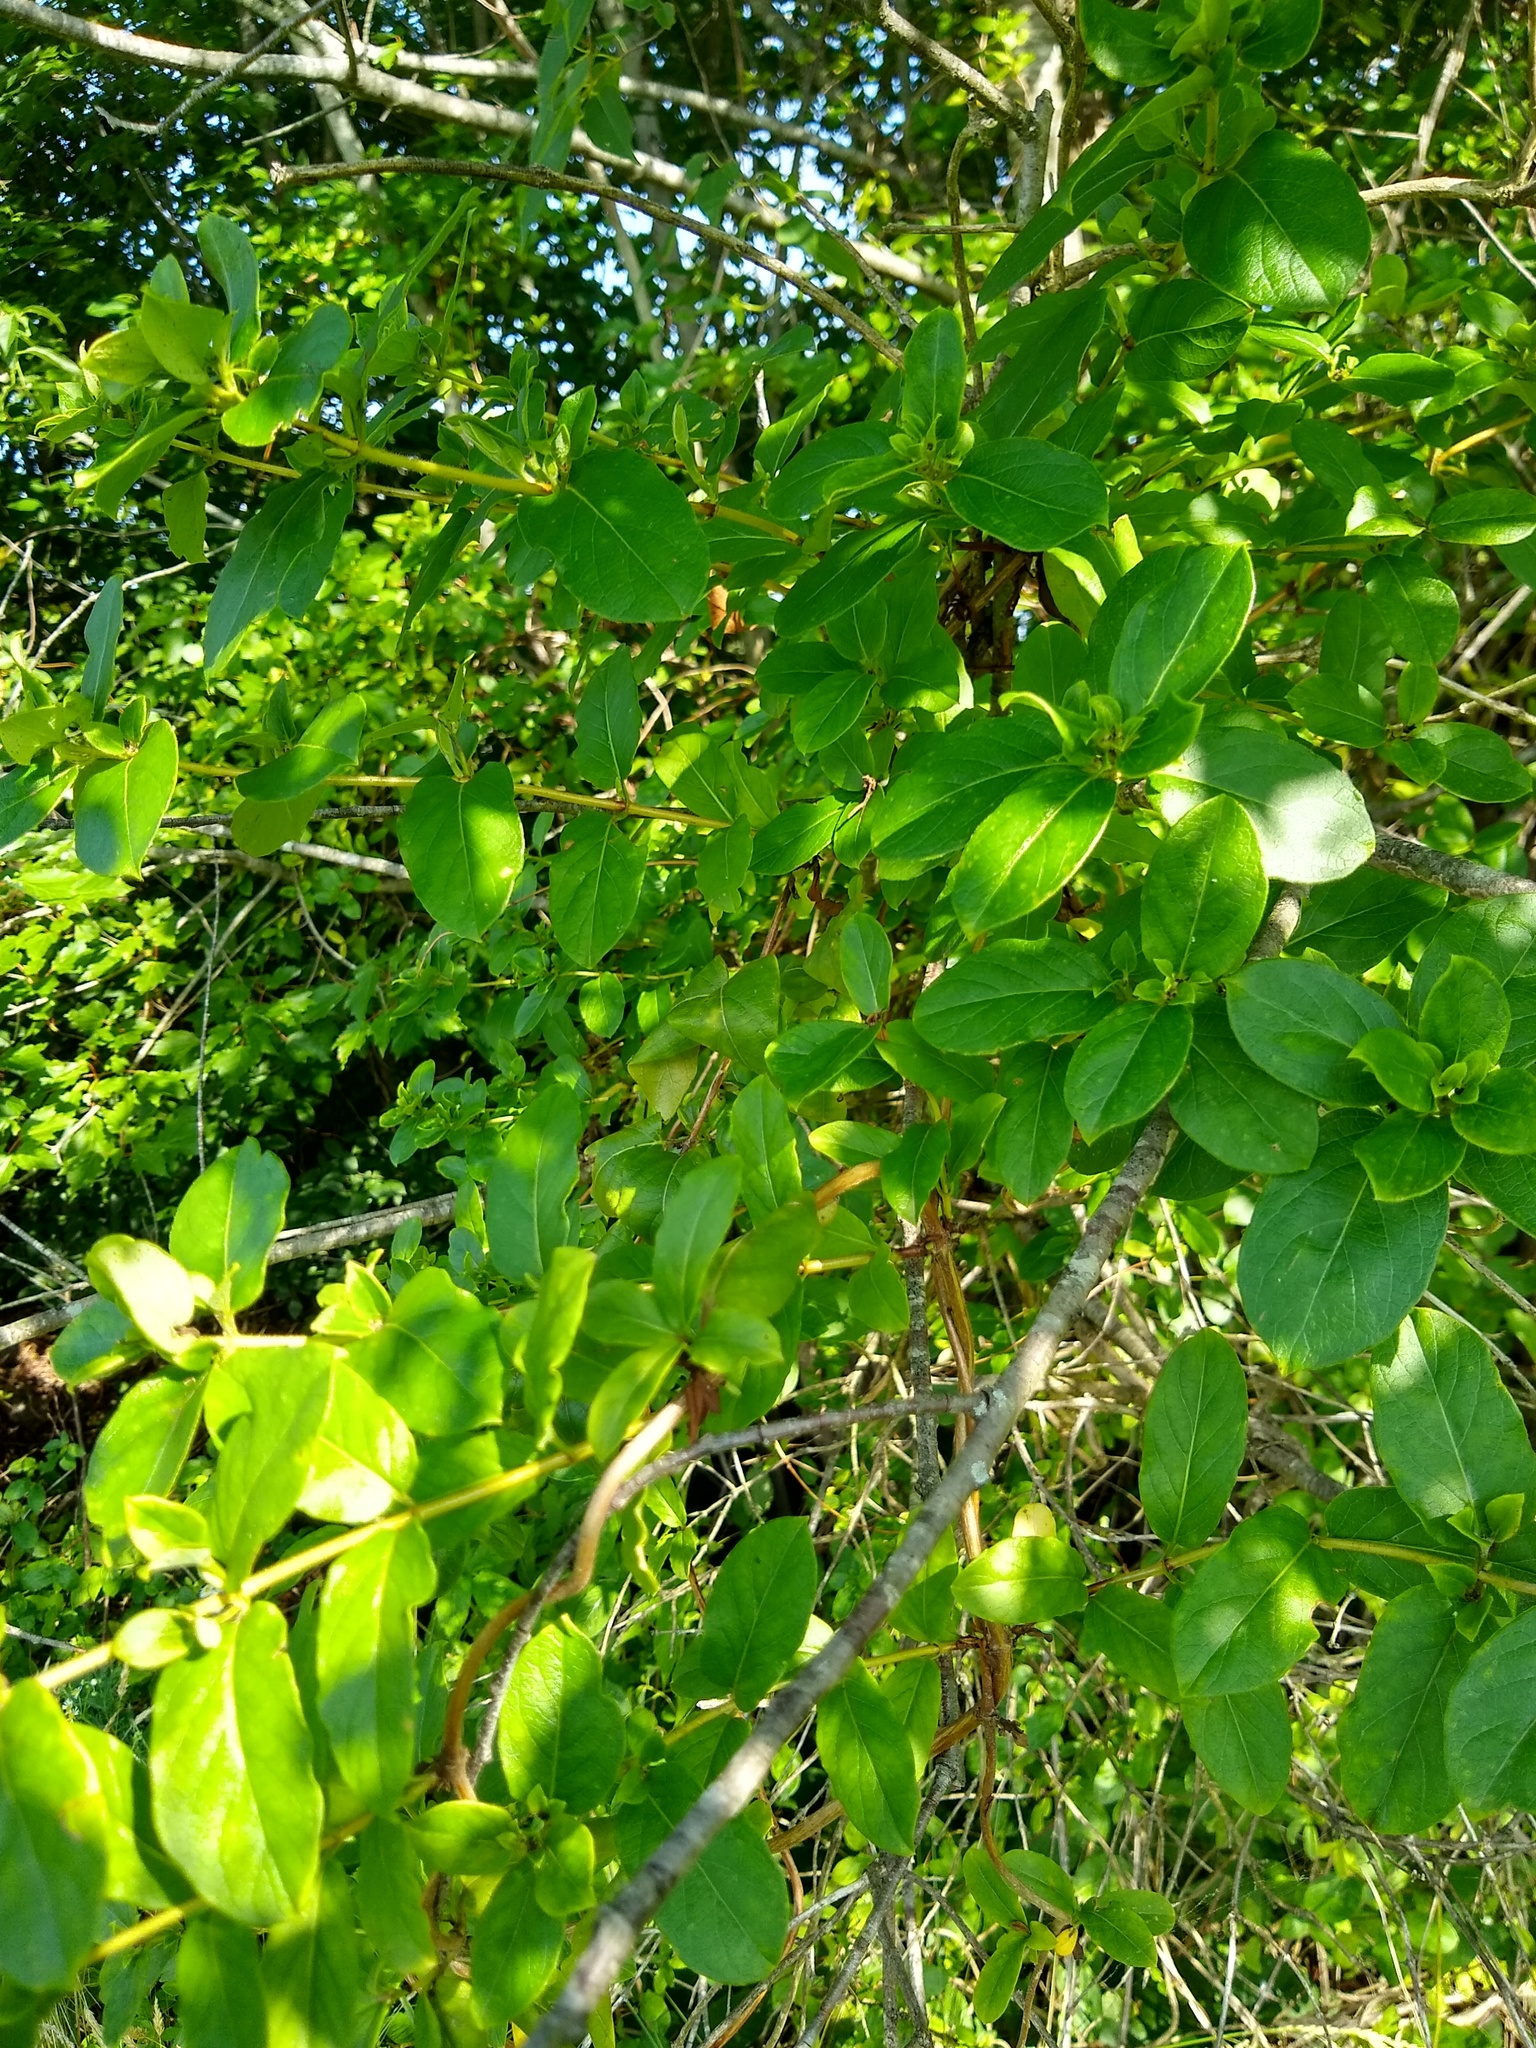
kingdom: Plantae
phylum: Tracheophyta
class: Magnoliopsida
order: Dipsacales
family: Caprifoliaceae
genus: Lonicera
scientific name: Lonicera japonica
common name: Japanese honeysuckle
